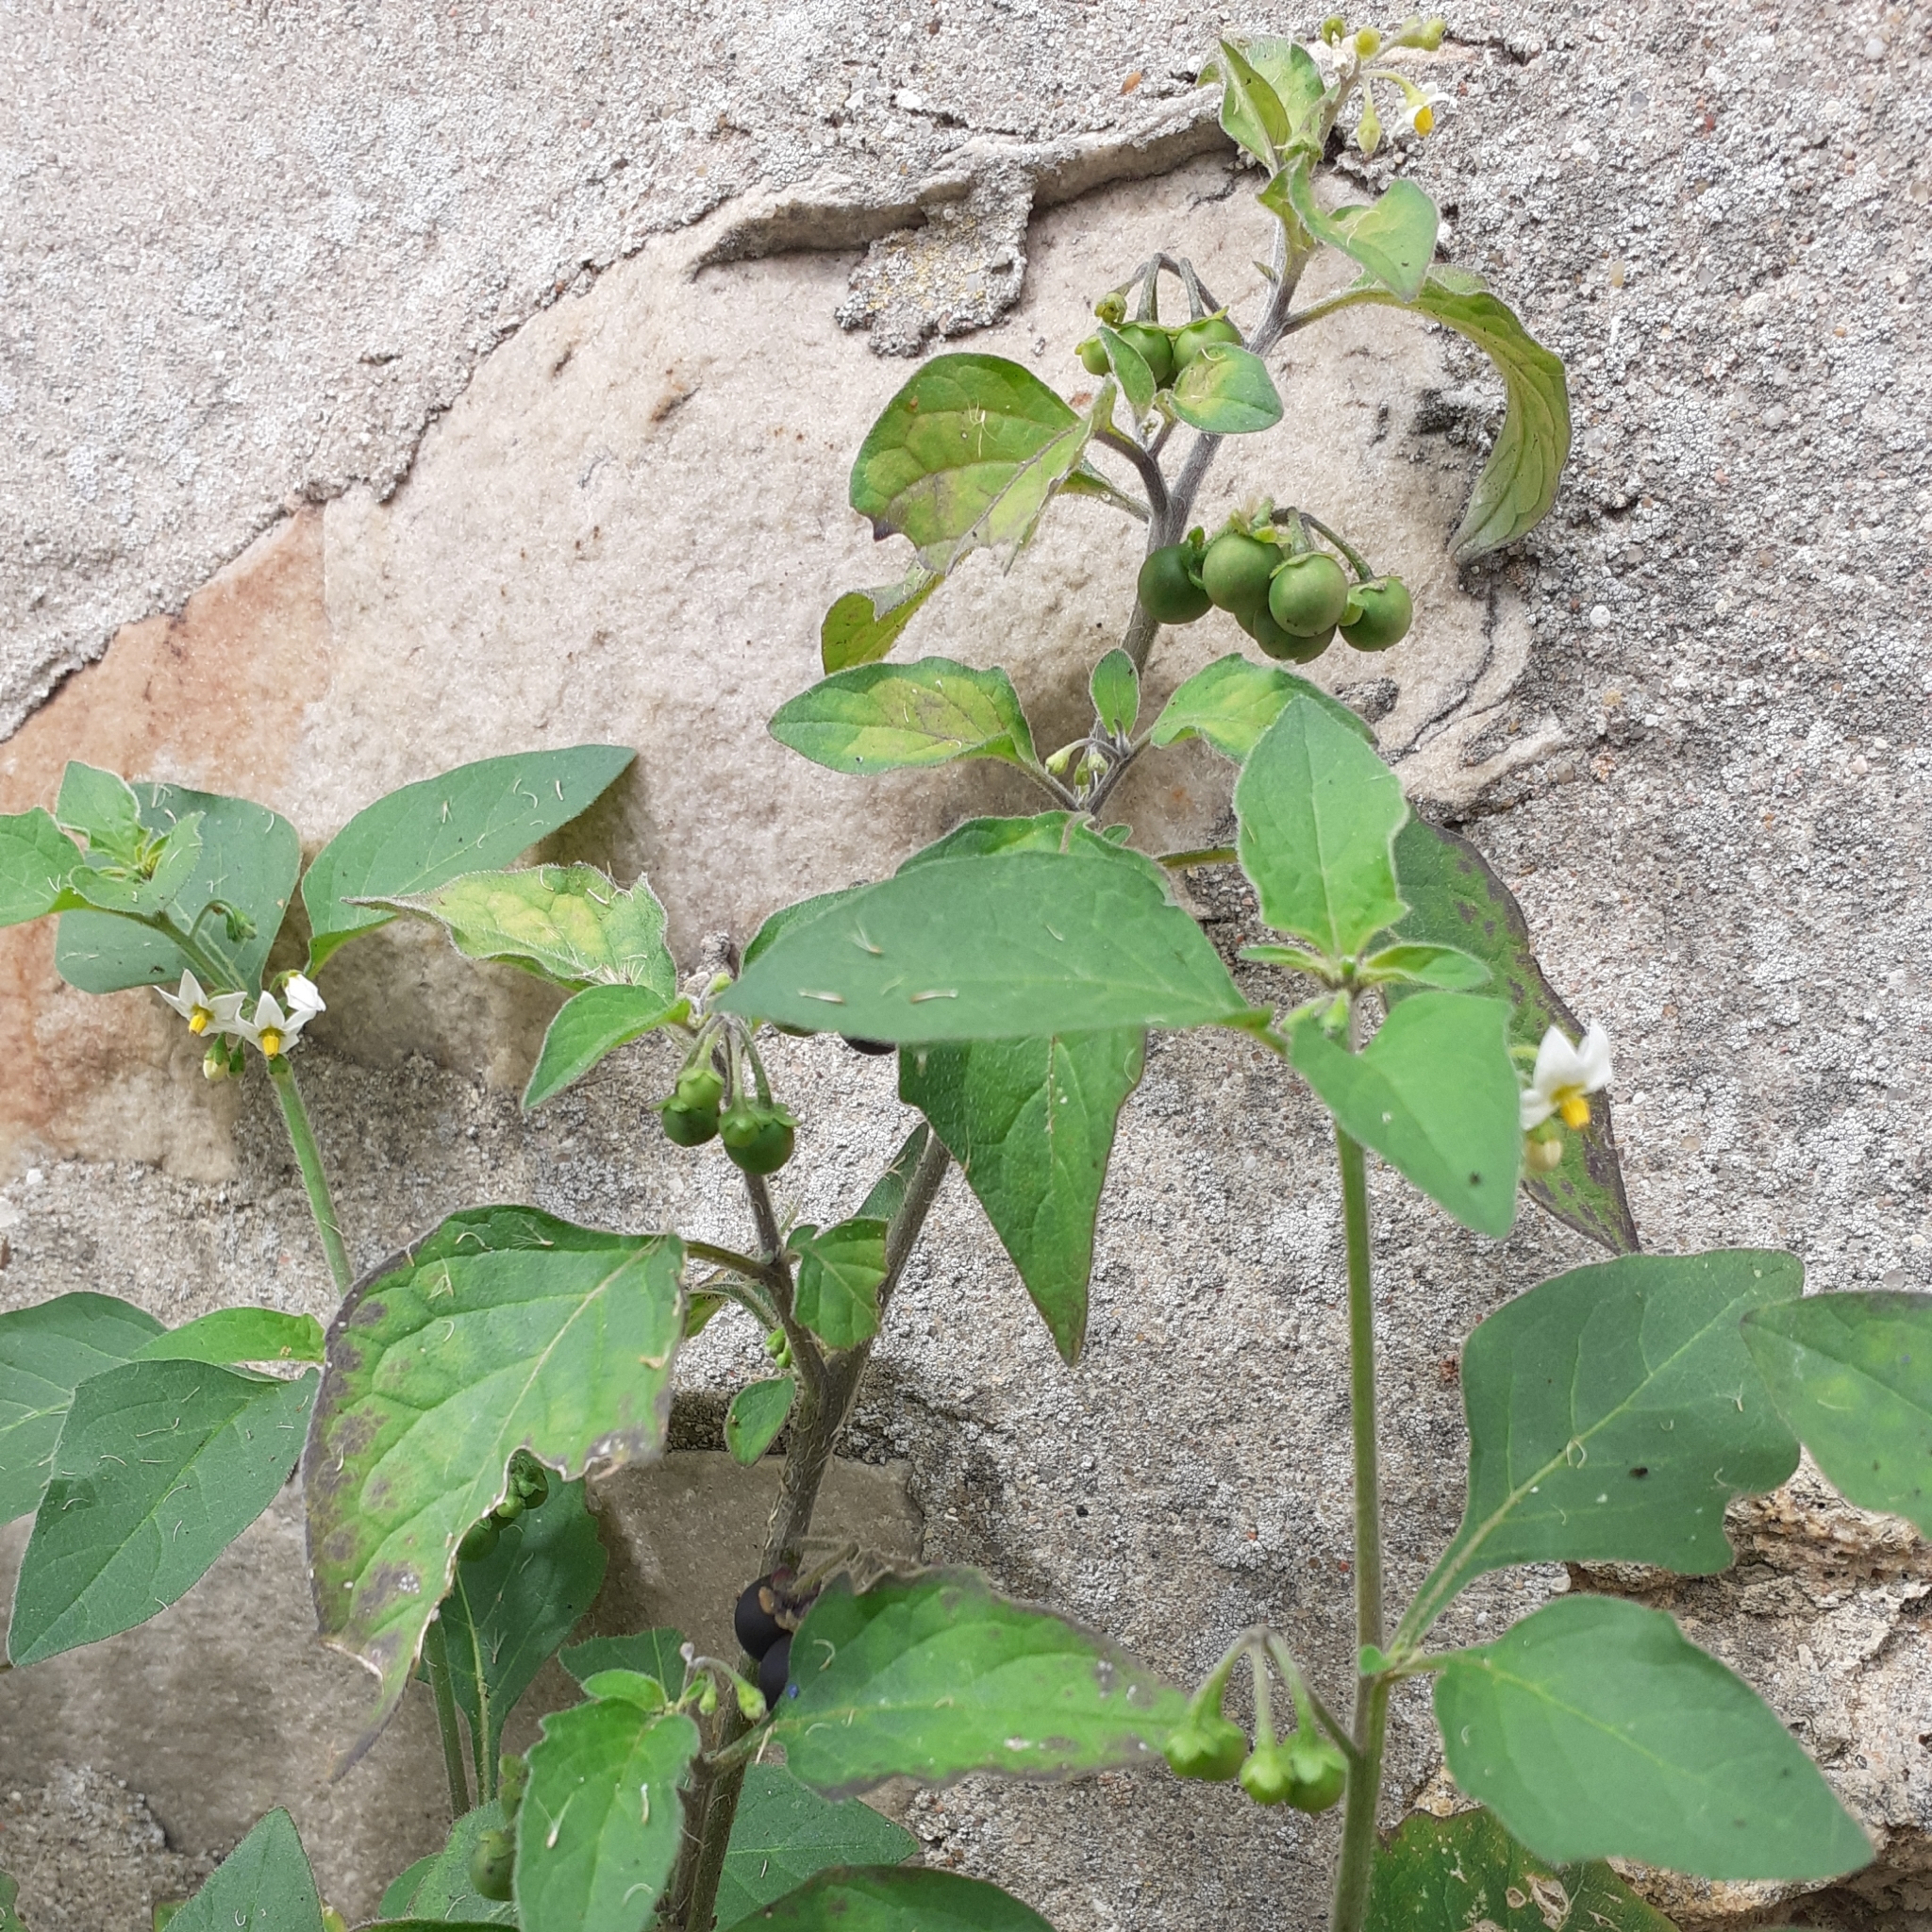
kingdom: Plantae
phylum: Tracheophyta
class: Magnoliopsida
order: Solanales
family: Solanaceae
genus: Solanum
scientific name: Solanum nigrum
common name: Black nightshade
